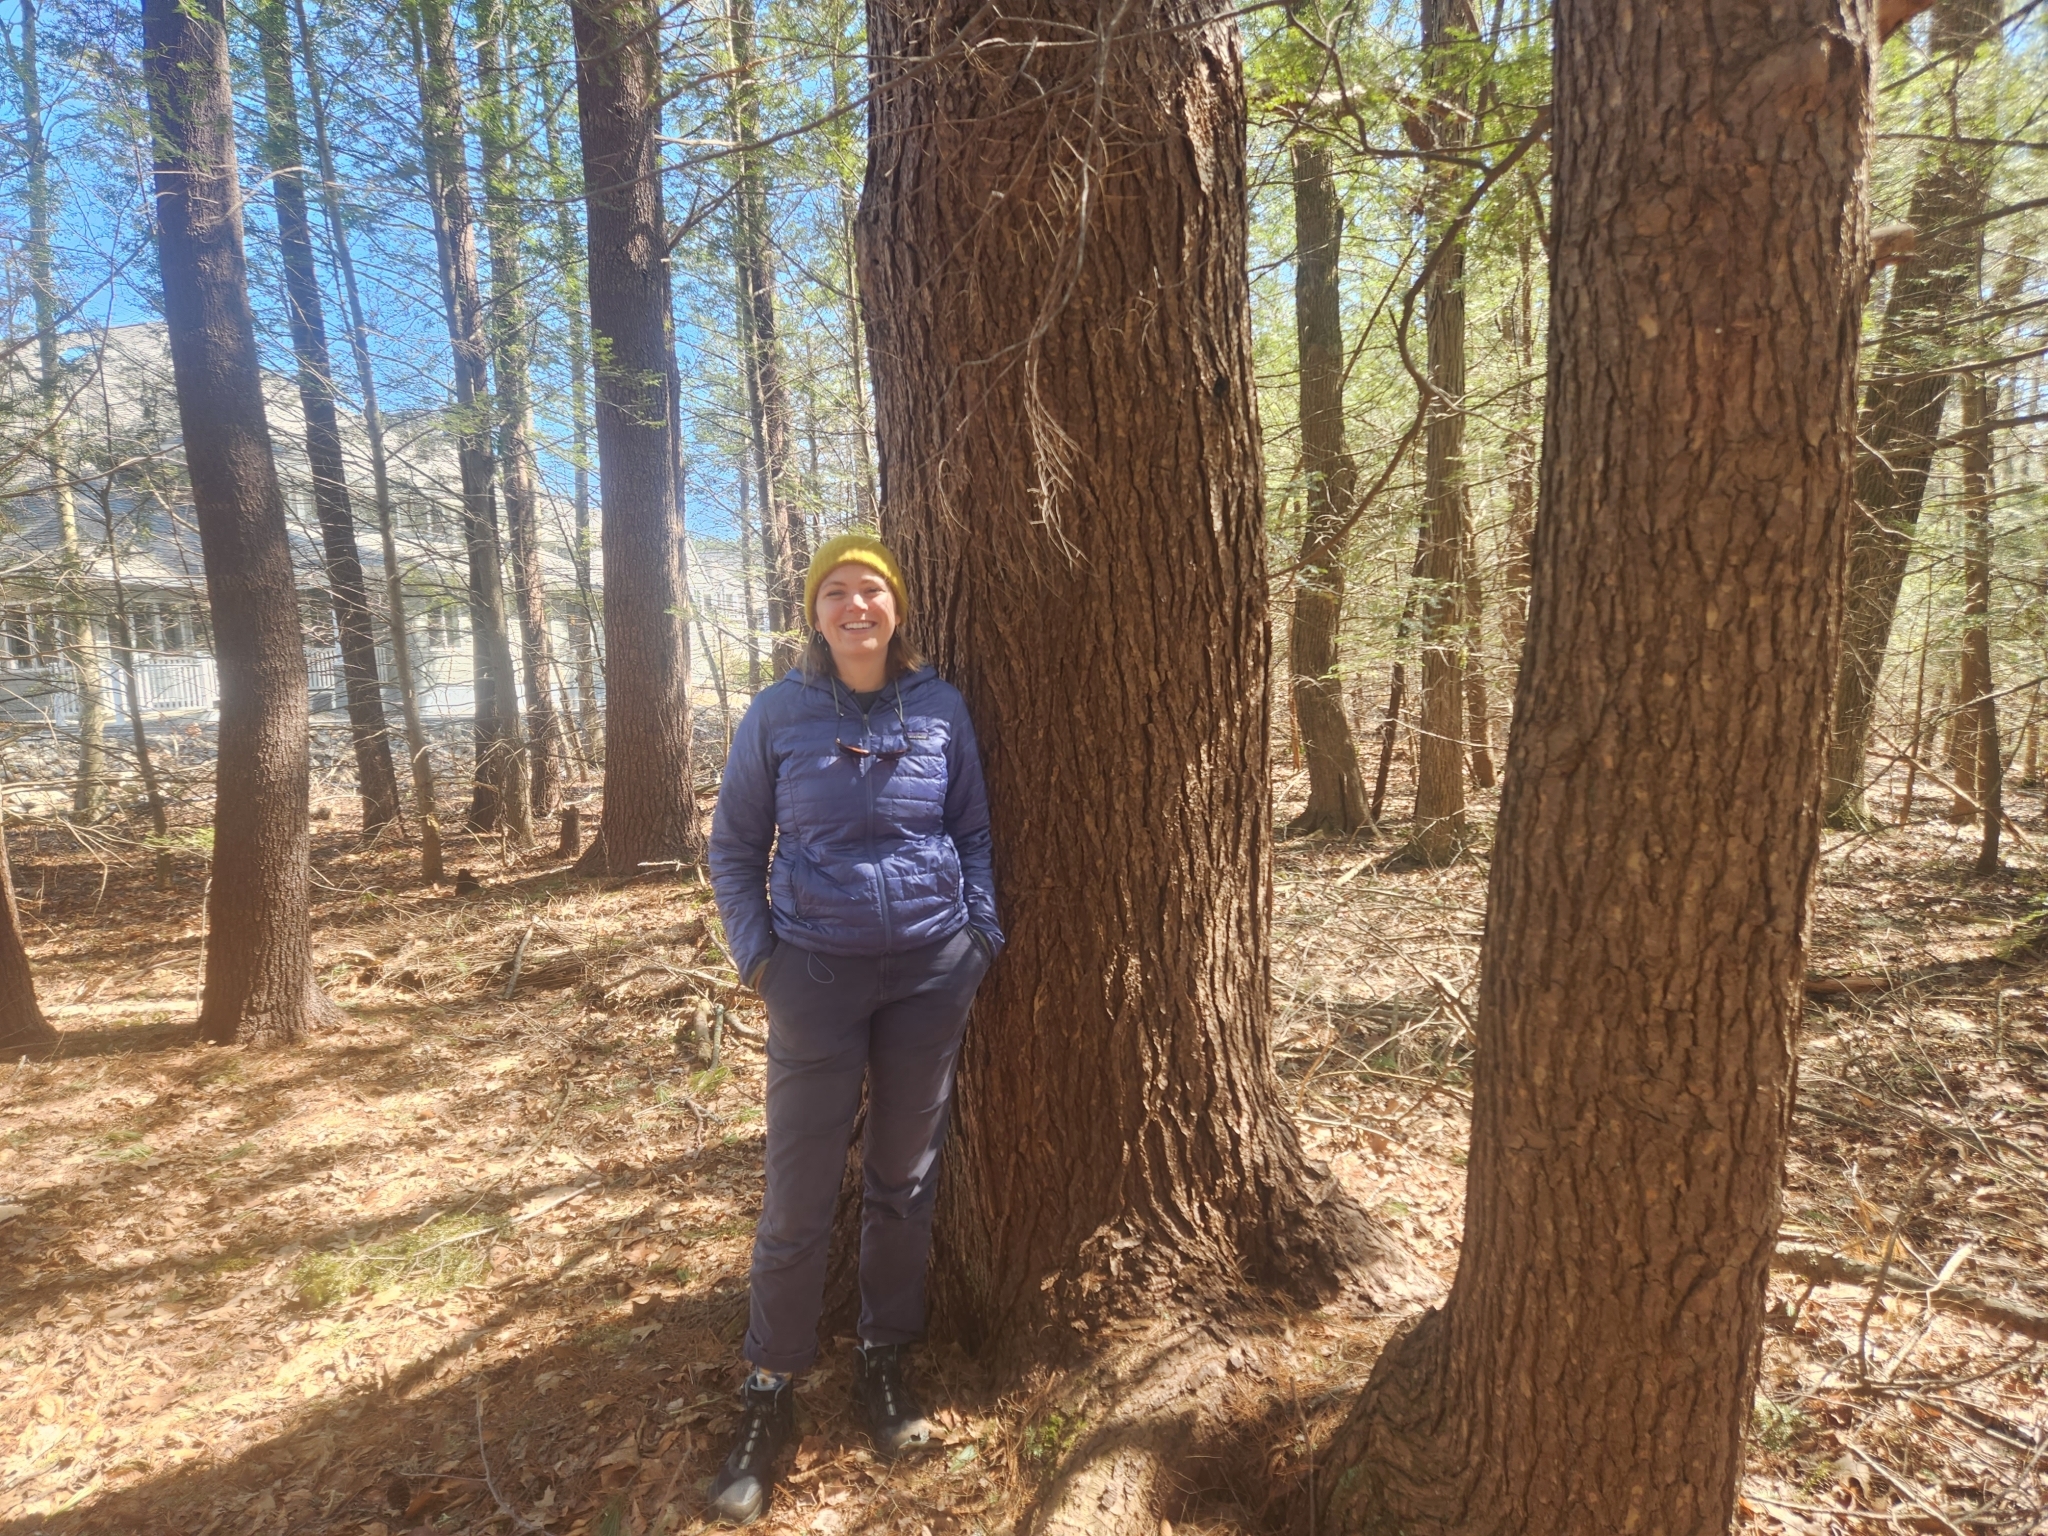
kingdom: Plantae
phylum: Tracheophyta
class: Pinopsida
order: Pinales
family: Pinaceae
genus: Tsuga
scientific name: Tsuga canadensis
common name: Eastern hemlock
